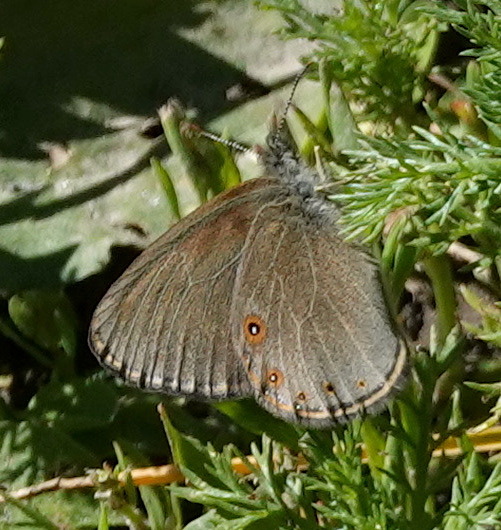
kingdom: Animalia
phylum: Arthropoda
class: Insecta
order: Lepidoptera
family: Nymphalidae
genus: Coenonympha
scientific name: Coenonympha haydeni
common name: Hayden's ringlet
